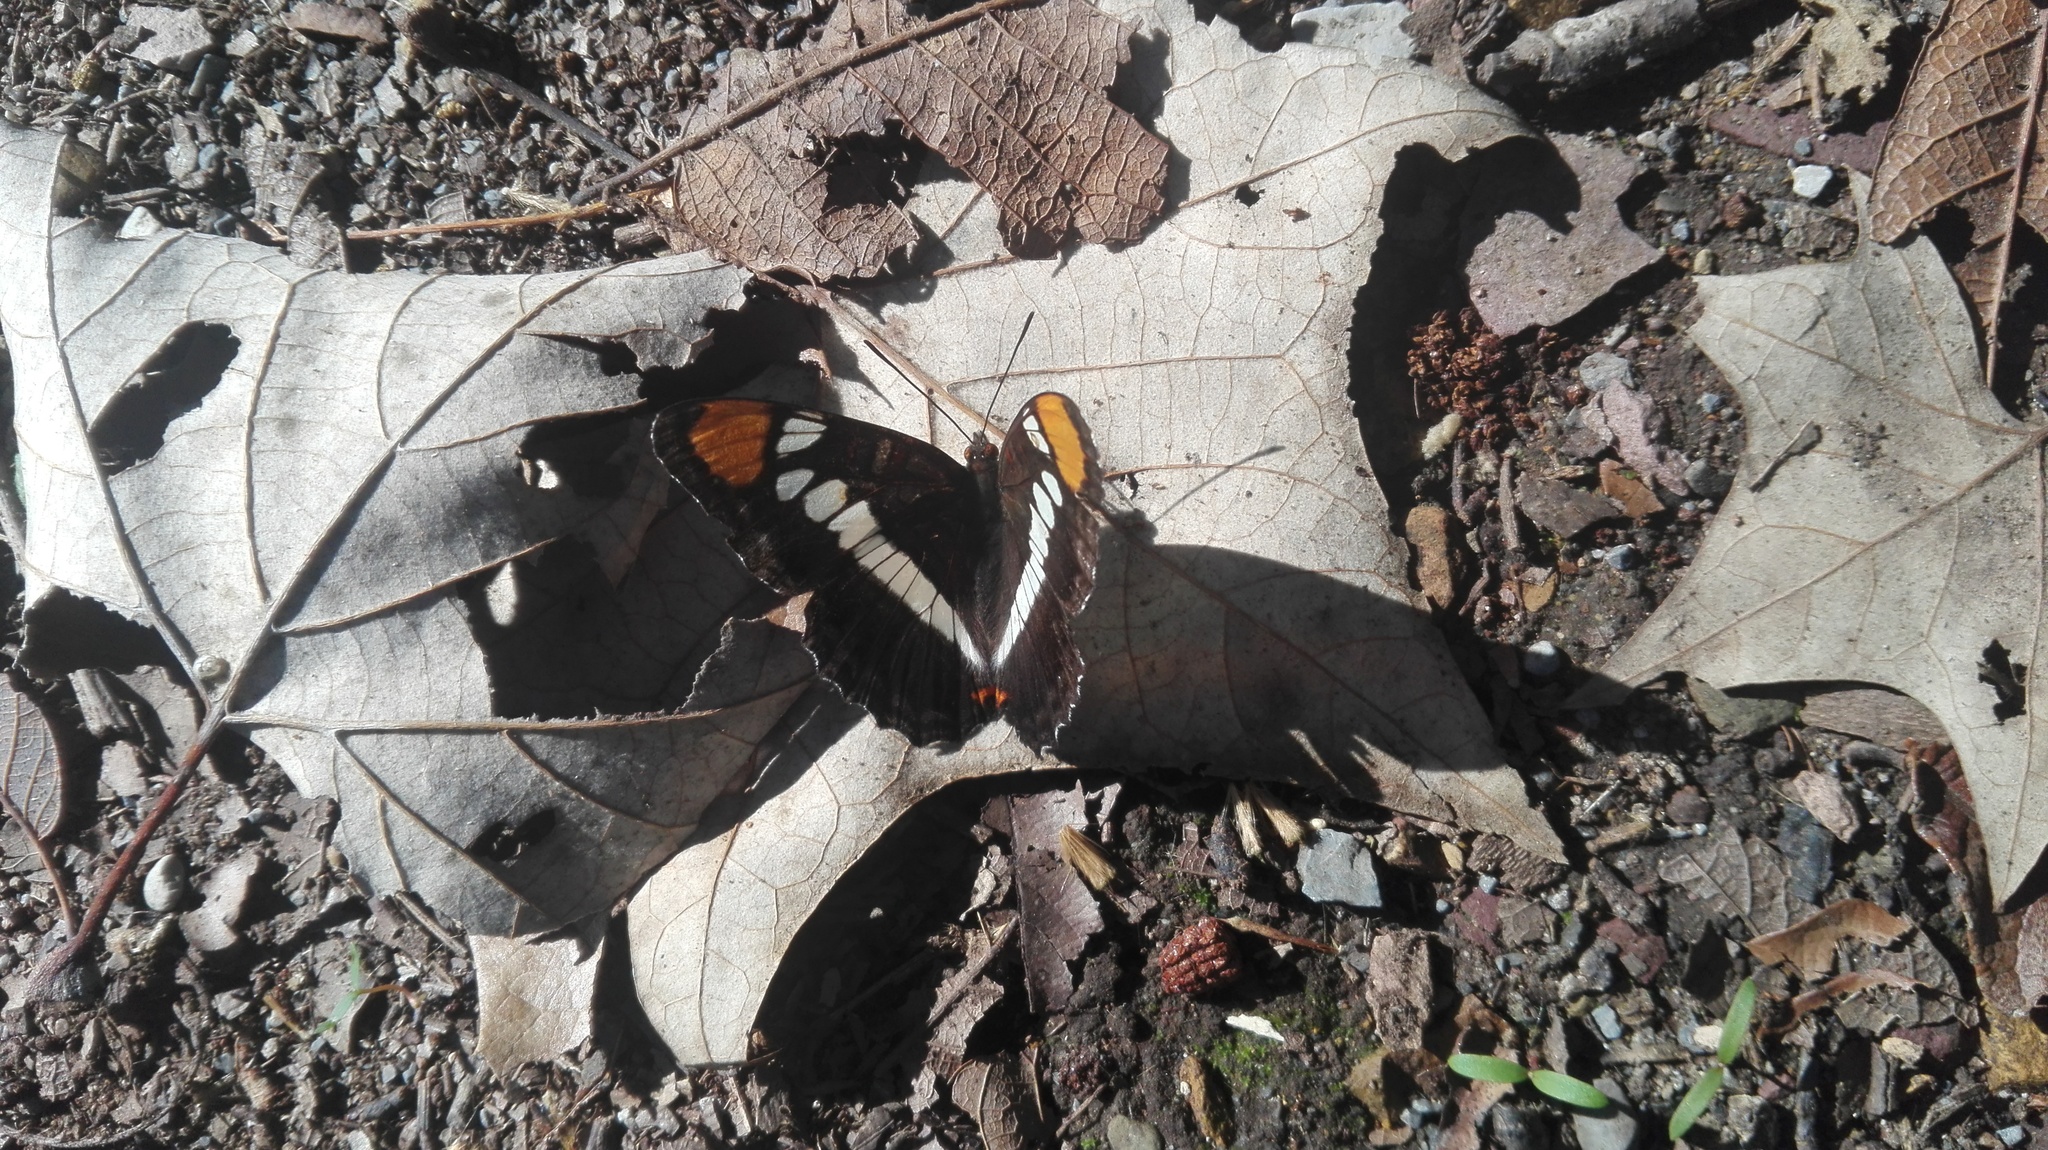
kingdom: Animalia
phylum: Arthropoda
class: Insecta
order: Lepidoptera
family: Nymphalidae
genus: Limenitis
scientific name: Limenitis Adelpha basiloides
